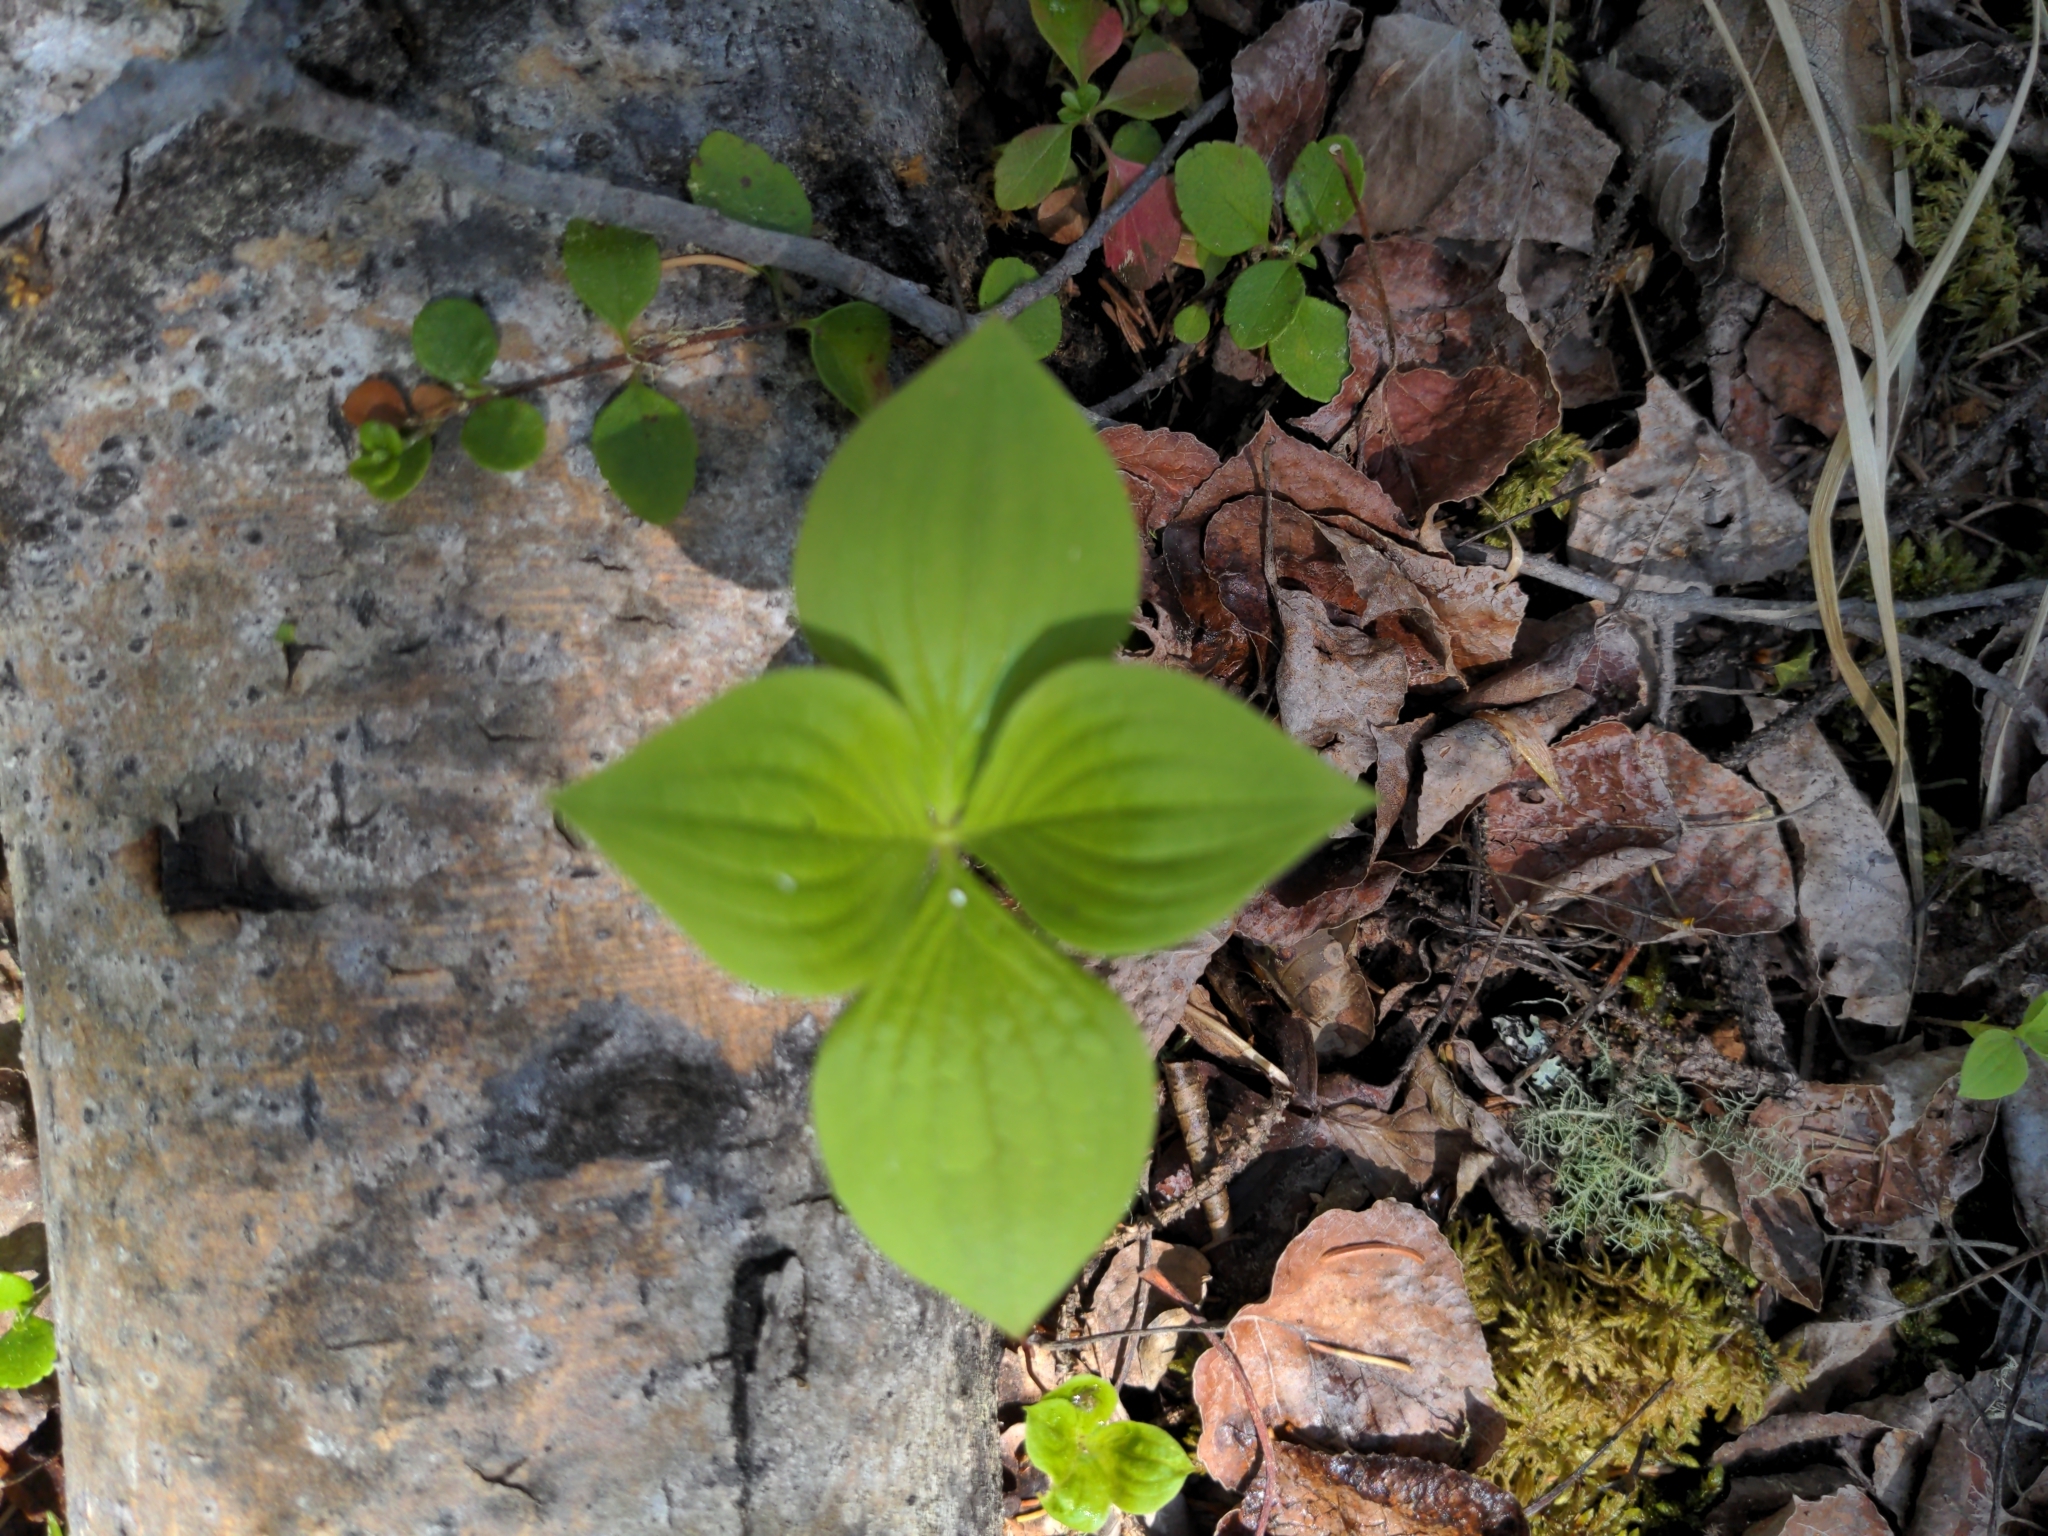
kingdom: Plantae
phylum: Tracheophyta
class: Magnoliopsida
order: Cornales
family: Cornaceae
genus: Cornus
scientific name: Cornus canadensis
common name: Creeping dogwood
